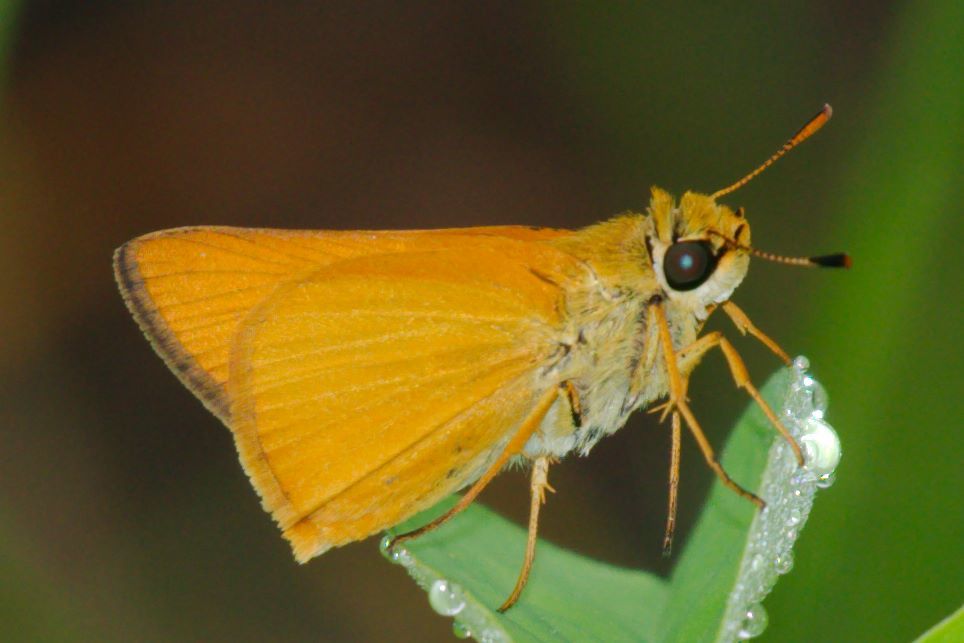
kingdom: Animalia
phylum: Arthropoda
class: Insecta
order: Lepidoptera
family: Hesperiidae
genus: Atrytone
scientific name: Atrytone delaware
